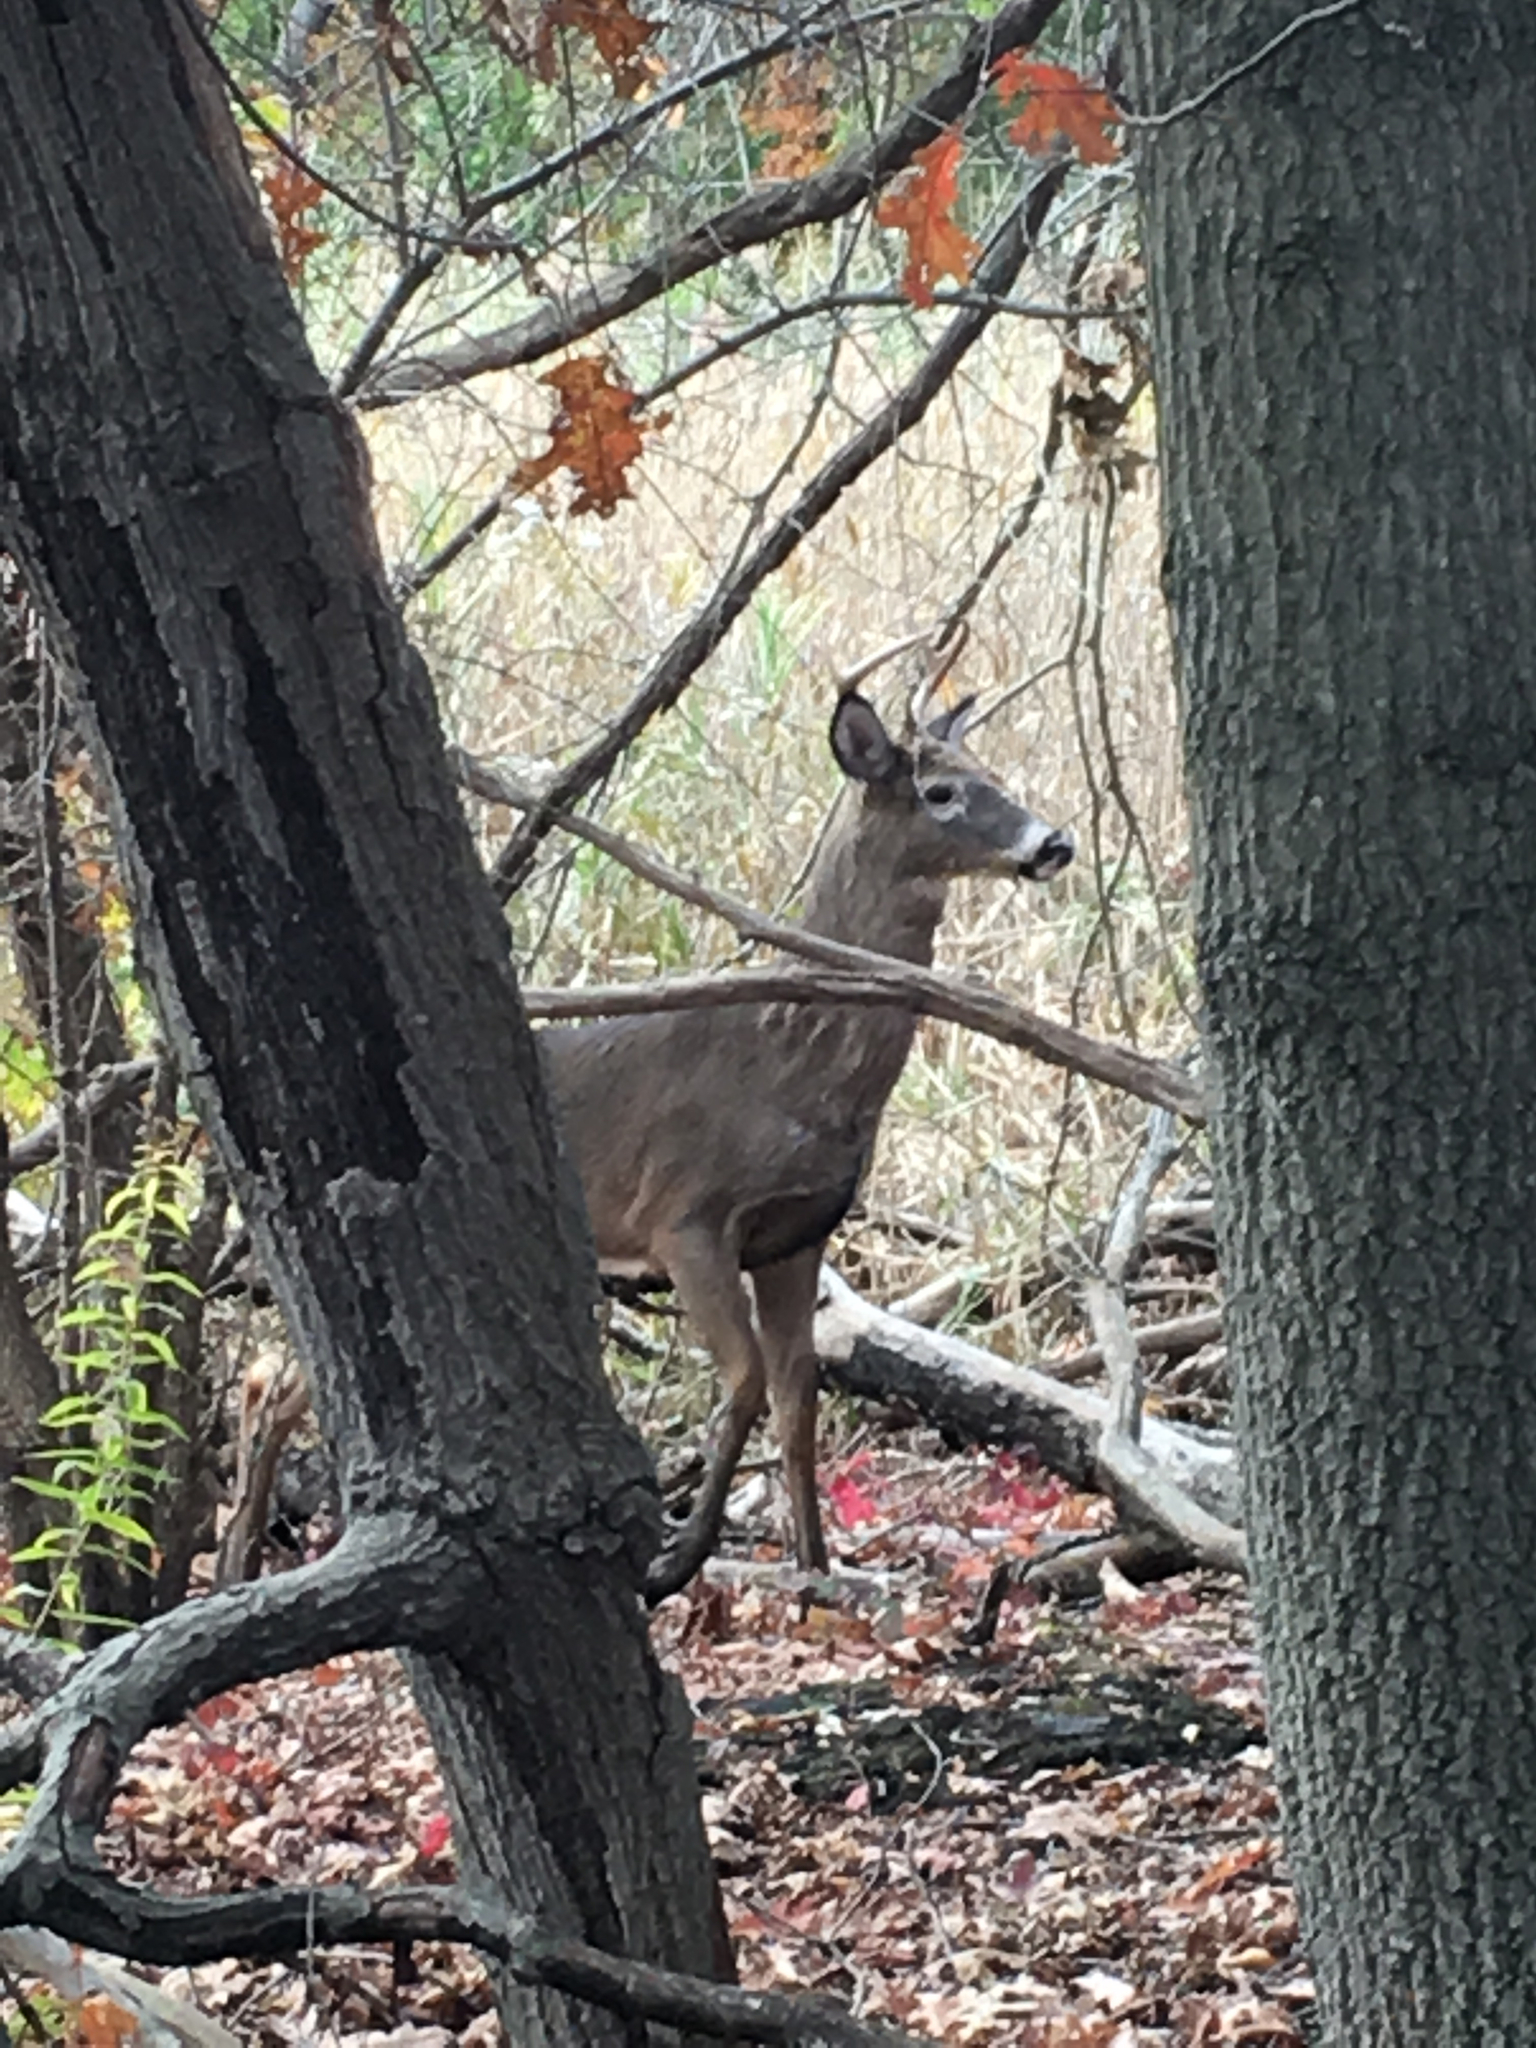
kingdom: Animalia
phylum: Chordata
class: Mammalia
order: Artiodactyla
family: Cervidae
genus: Odocoileus
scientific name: Odocoileus virginianus
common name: White-tailed deer
